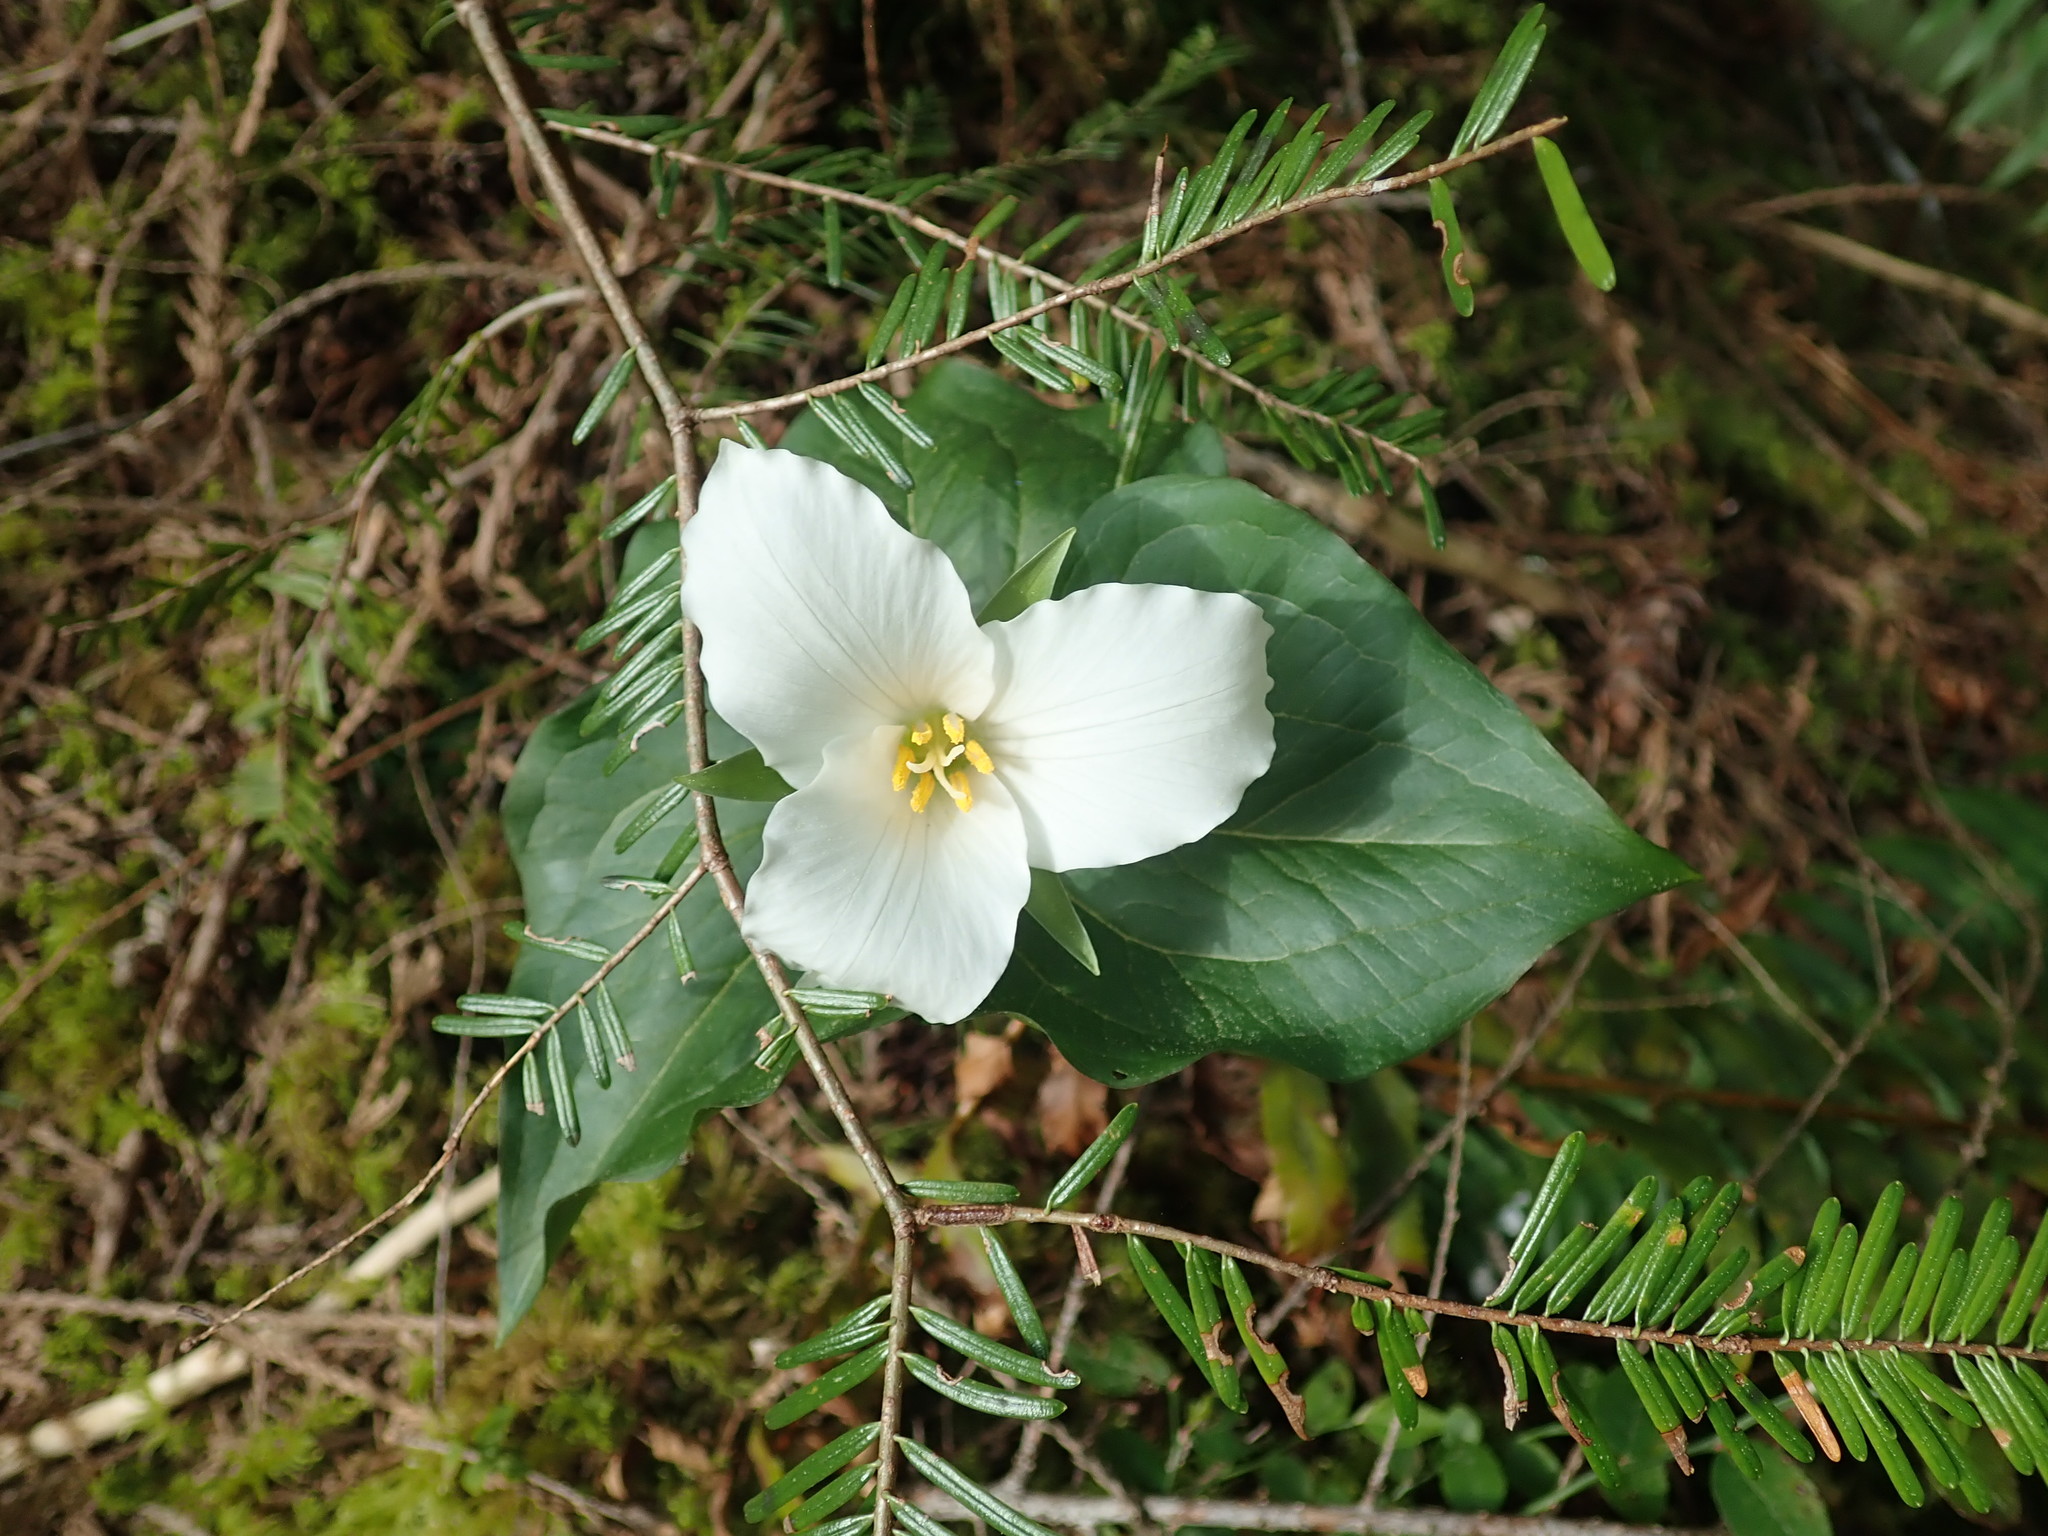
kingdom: Plantae
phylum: Tracheophyta
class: Liliopsida
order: Liliales
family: Melanthiaceae
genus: Trillium
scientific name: Trillium ovatum
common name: Pacific trillium
